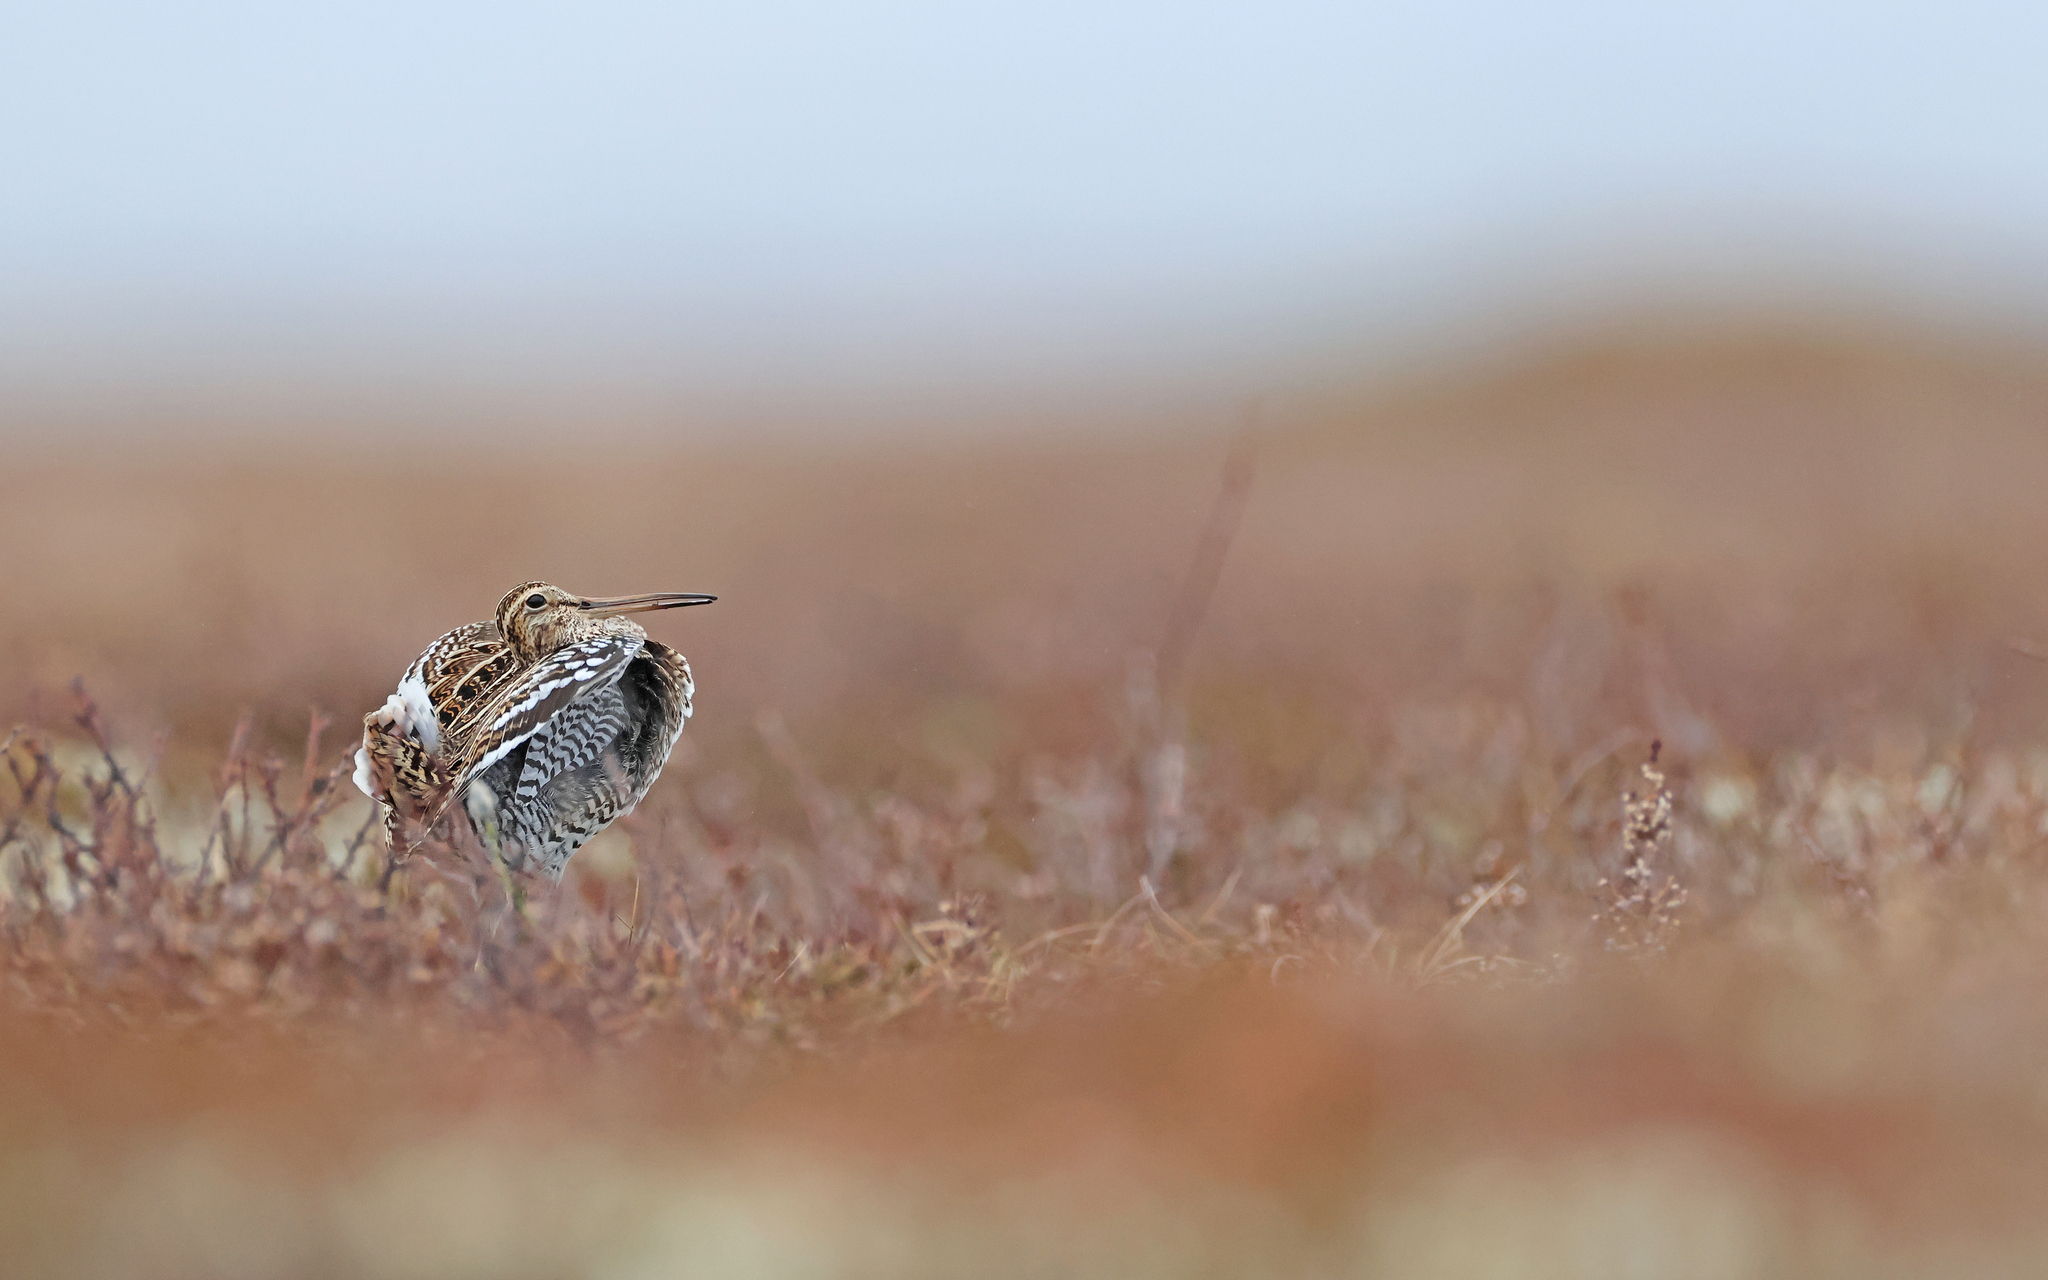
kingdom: Animalia
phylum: Chordata
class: Aves
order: Charadriiformes
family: Scolopacidae
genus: Gallinago
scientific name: Gallinago media
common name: Great snipe
